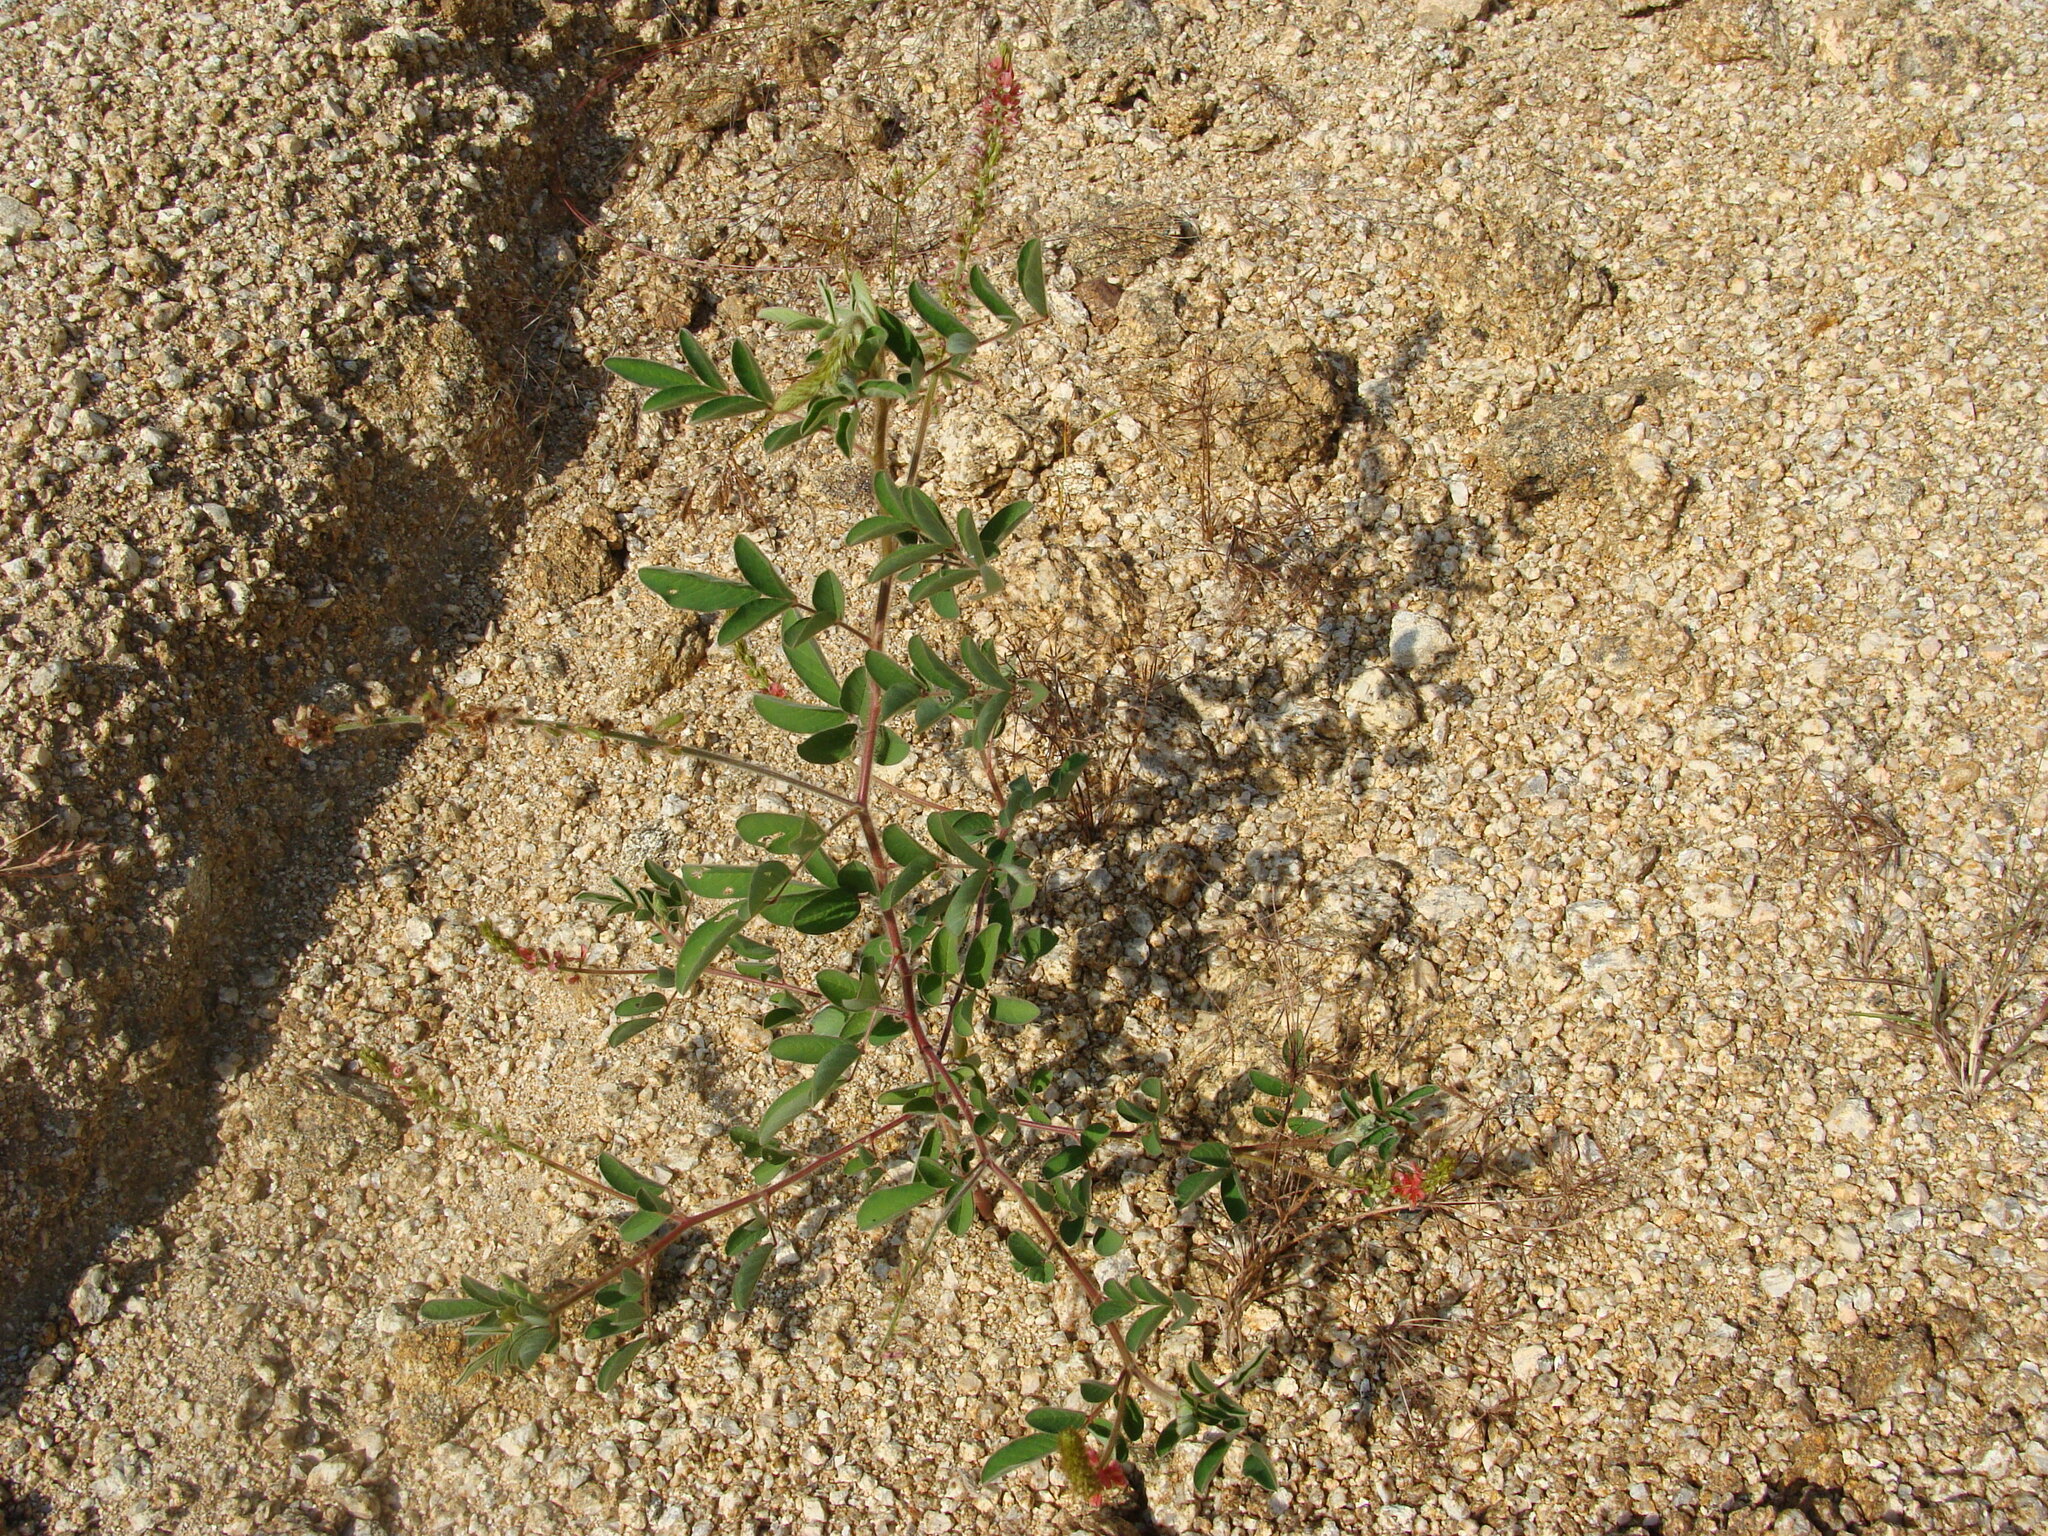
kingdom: Plantae
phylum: Tracheophyta
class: Magnoliopsida
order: Fabales
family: Fabaceae
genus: Indigofera
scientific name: Indigofera hirsuta
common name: Hairy indigo
